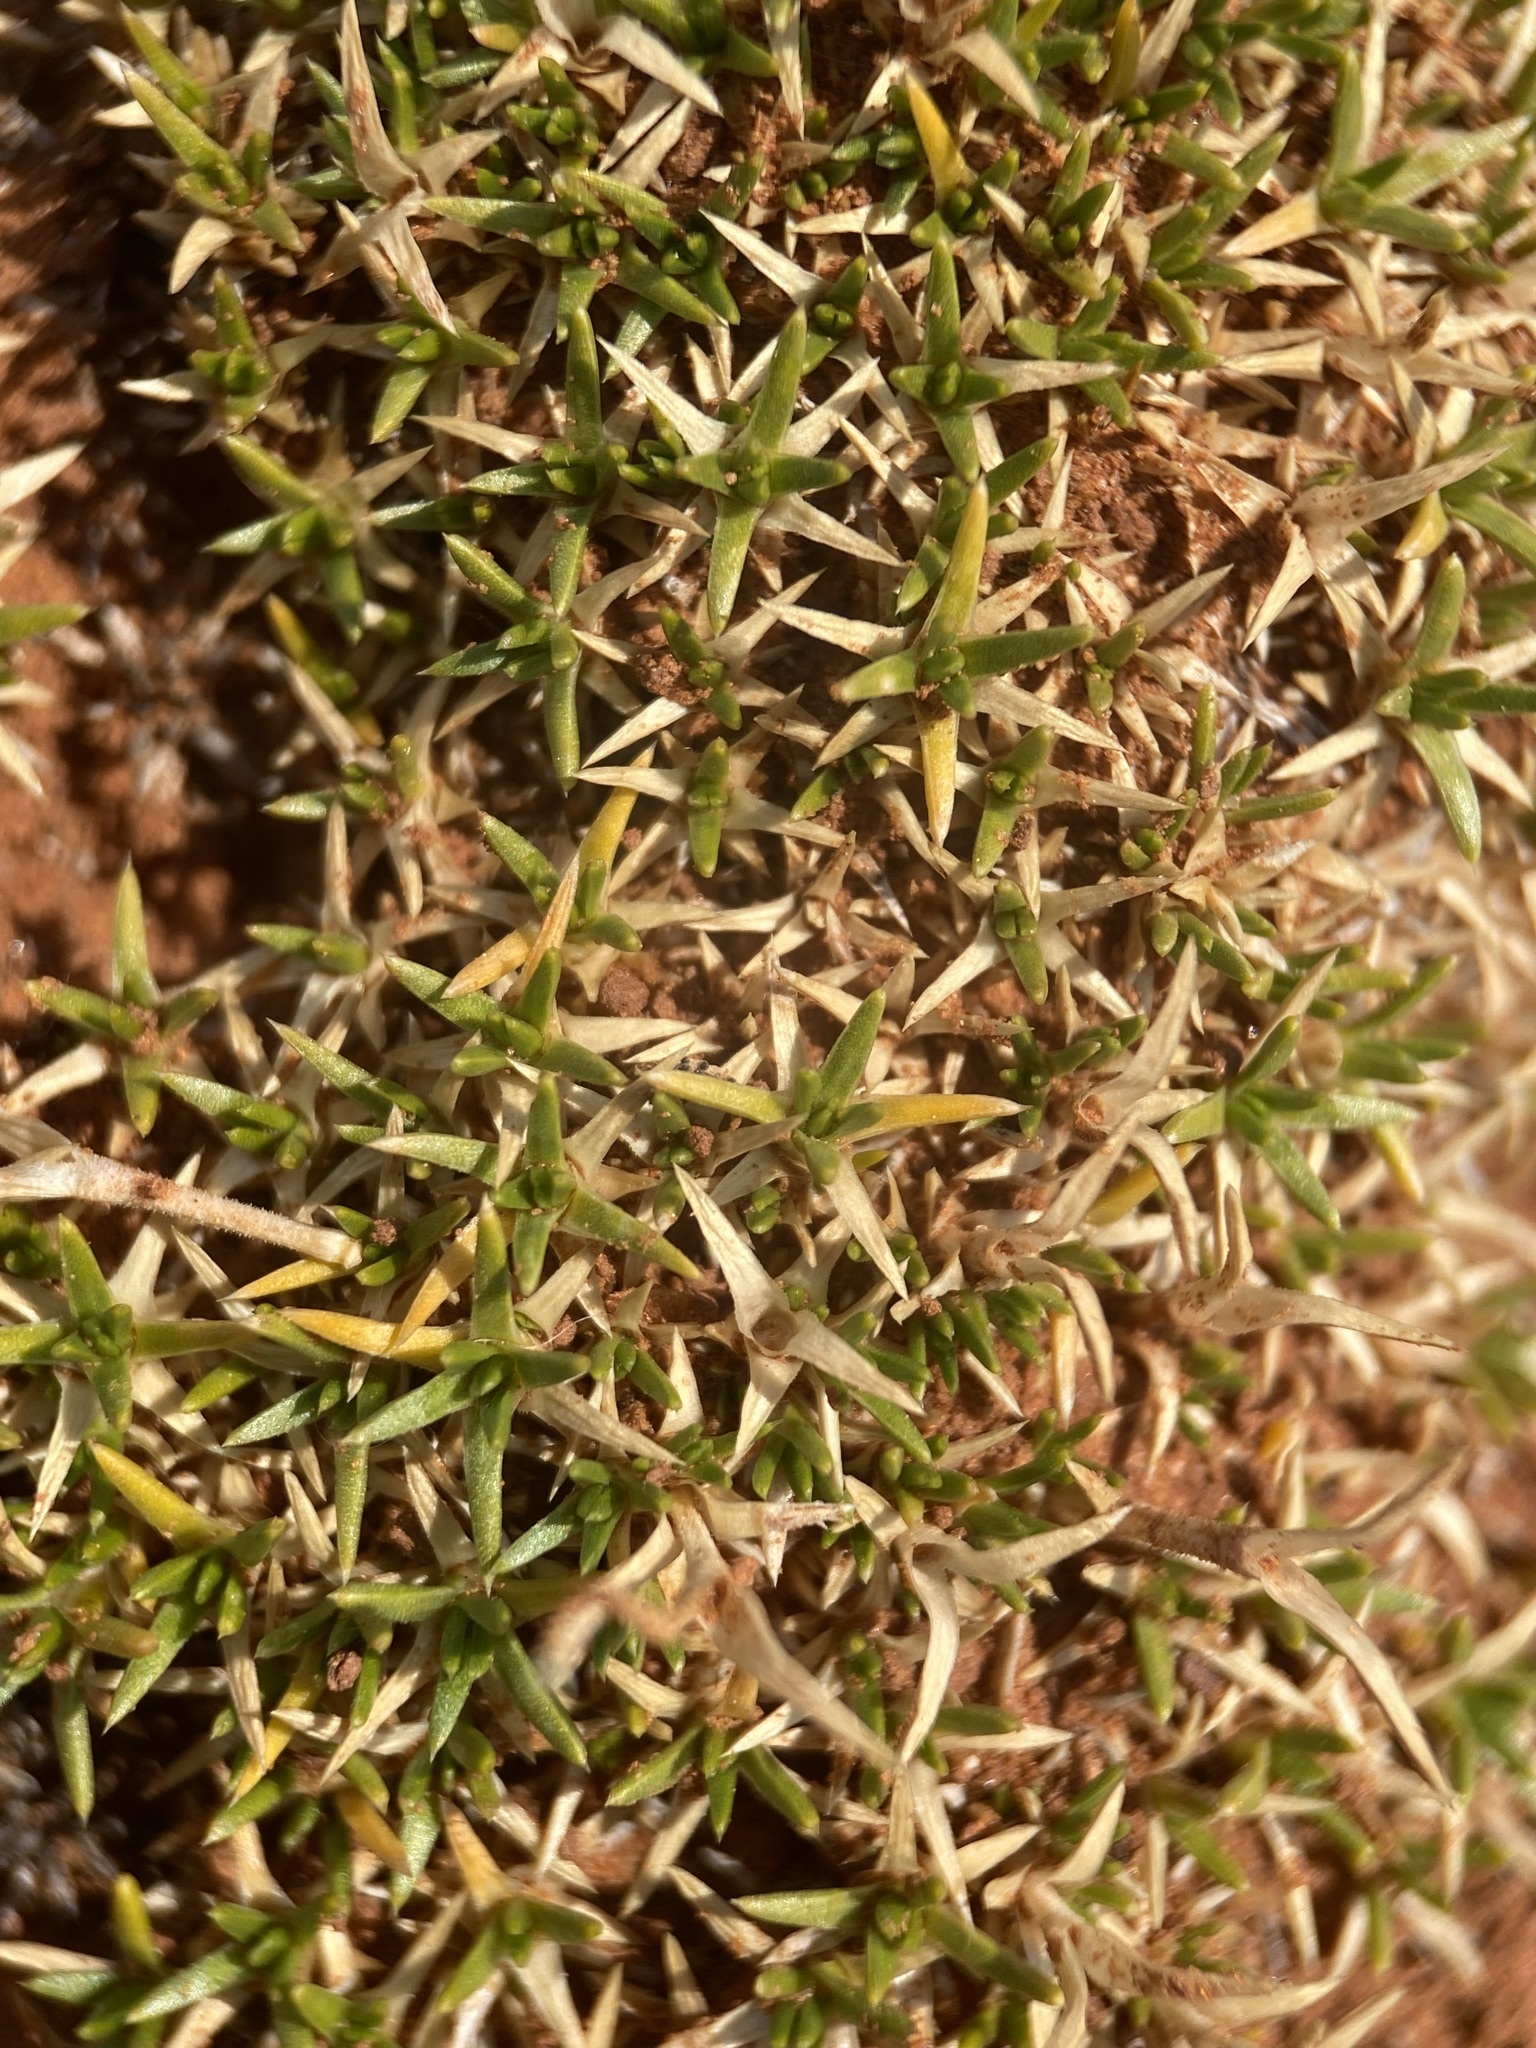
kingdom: Plantae
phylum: Tracheophyta
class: Magnoliopsida
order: Caryophyllales
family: Caryophyllaceae
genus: Eremogone
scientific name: Eremogone hookeri
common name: Hooker's sandwort
